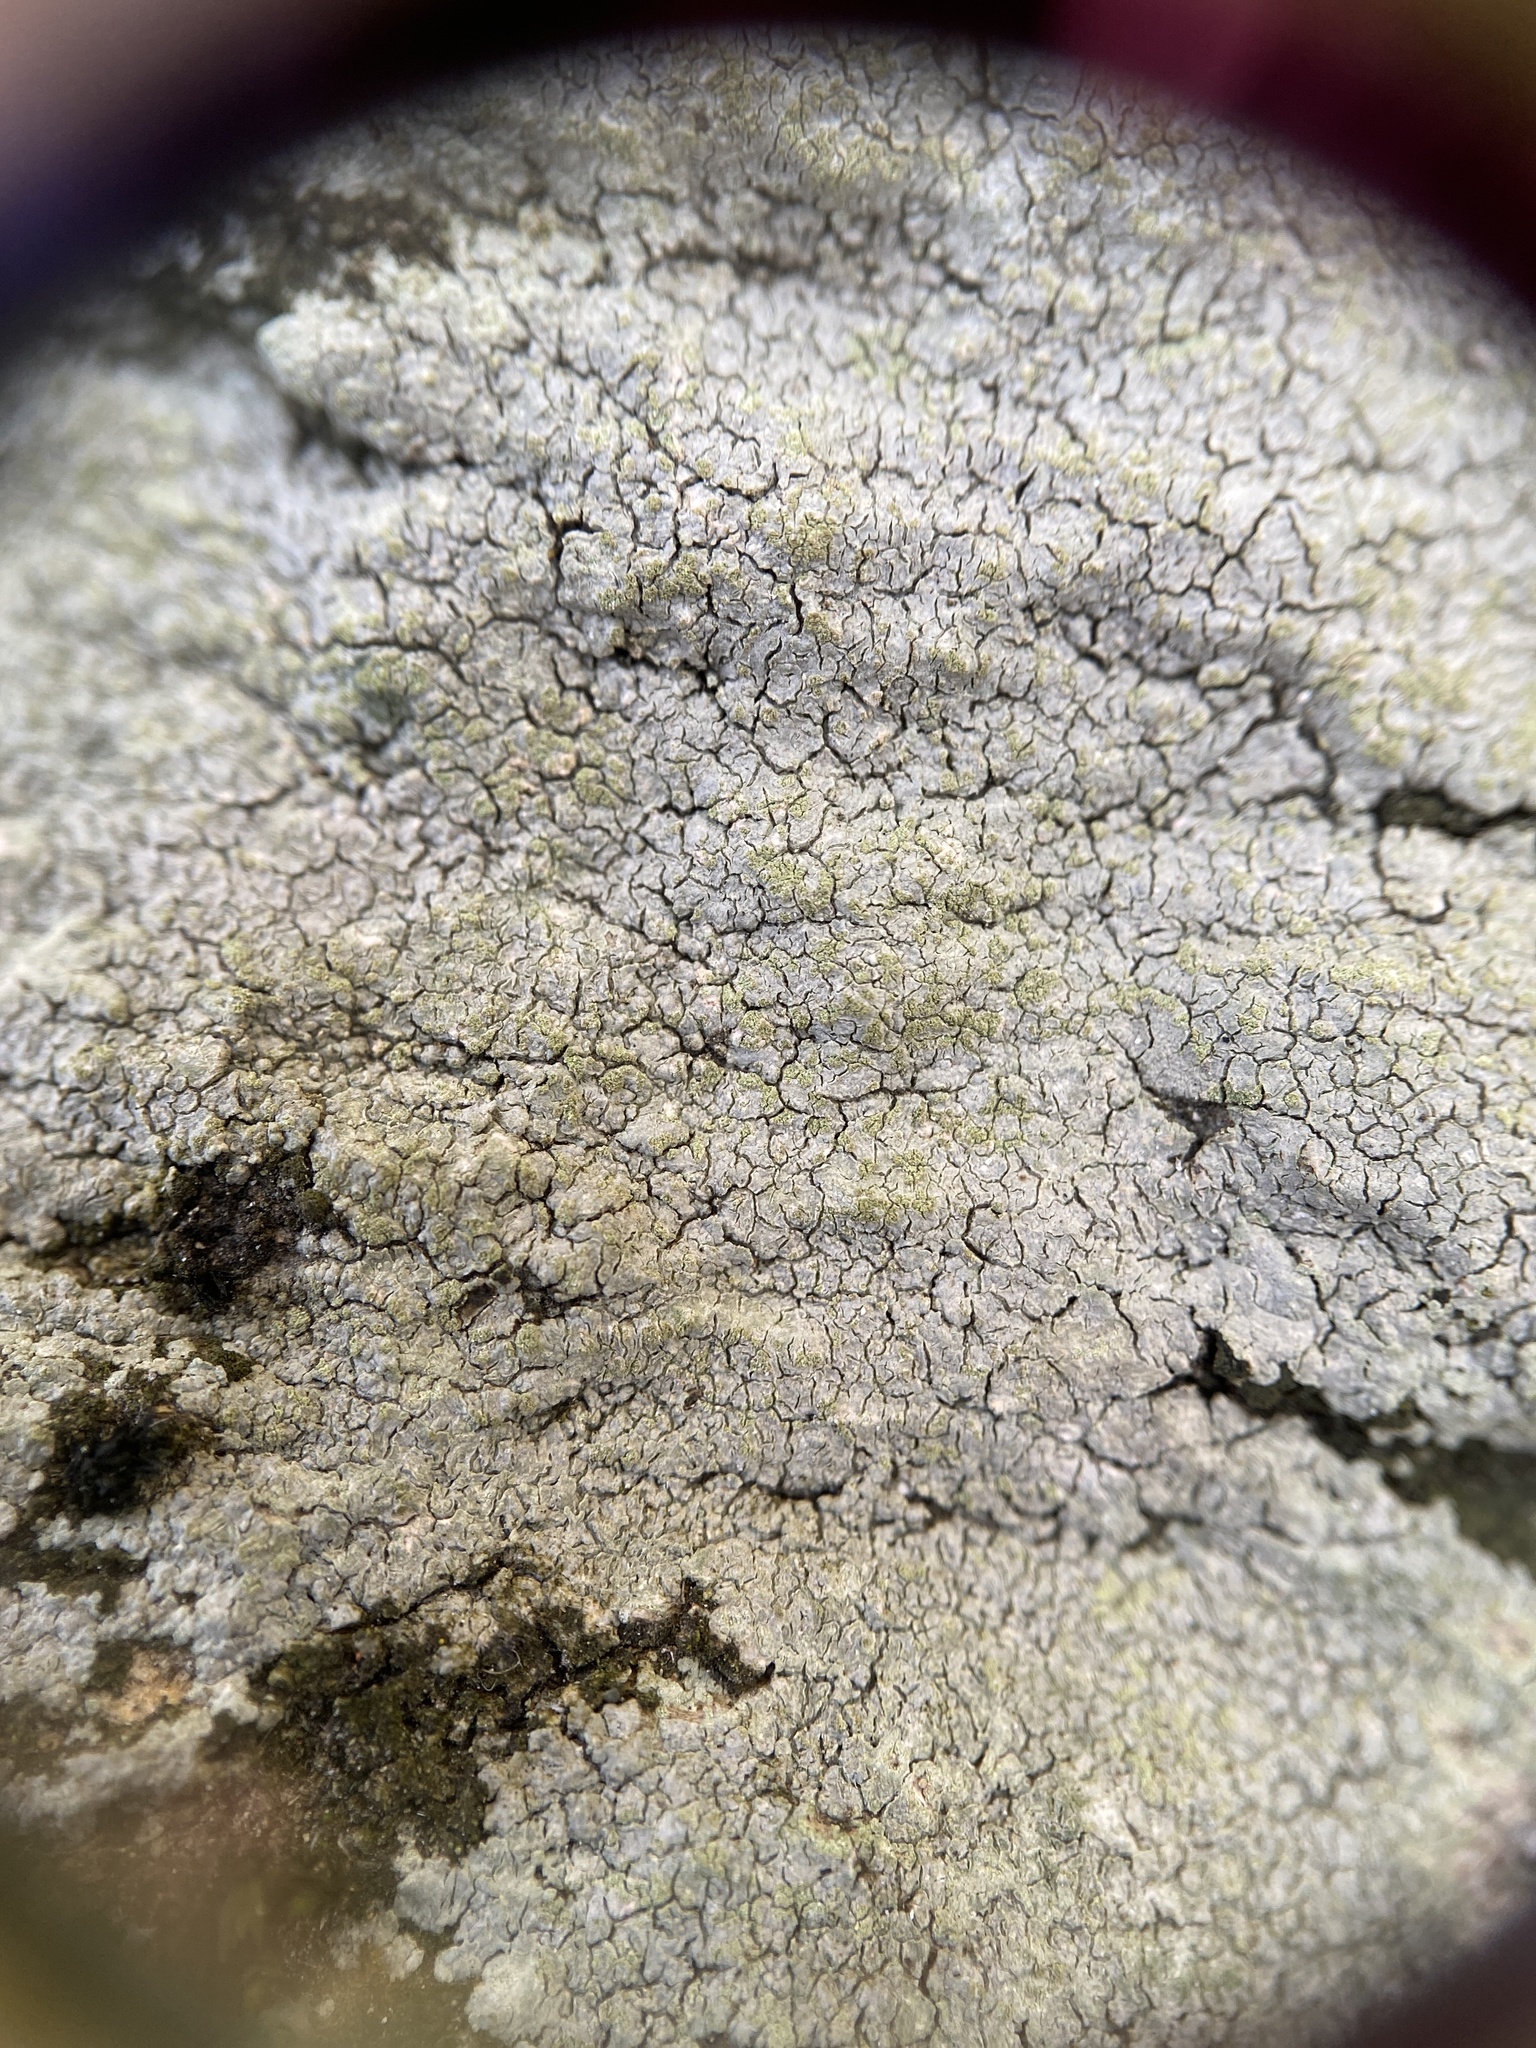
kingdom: Fungi
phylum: Ascomycota
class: Lecanoromycetes
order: Baeomycetales
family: Trapeliaceae
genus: Kleopowiella
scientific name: Kleopowiella placodioides
